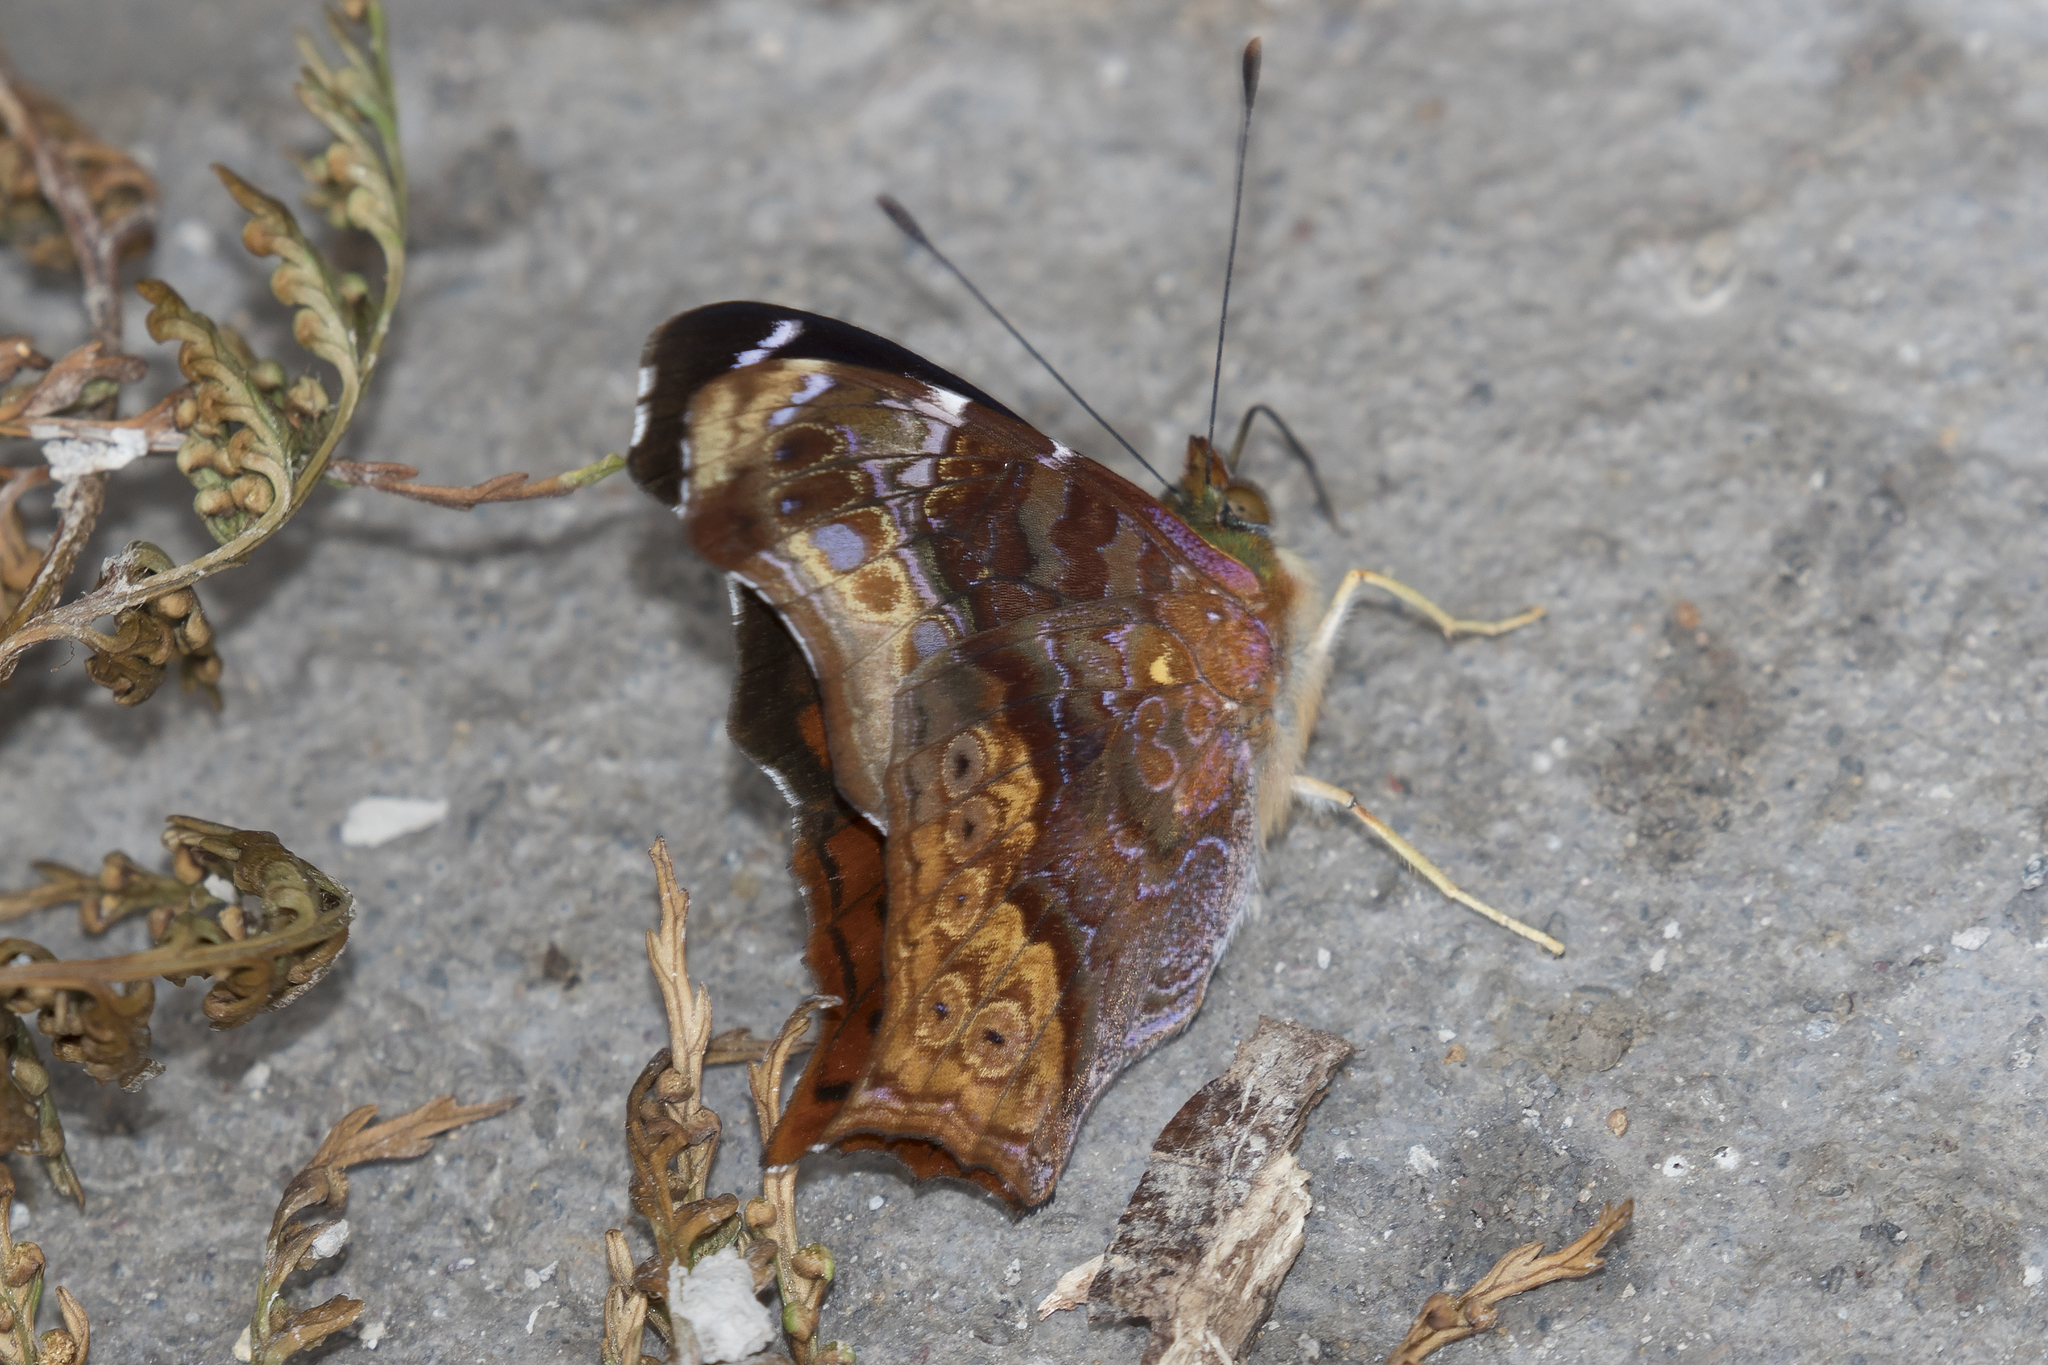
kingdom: Animalia
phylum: Arthropoda
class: Insecta
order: Lepidoptera
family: Nymphalidae
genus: Hypanartia
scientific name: Hypanartia cinderella
